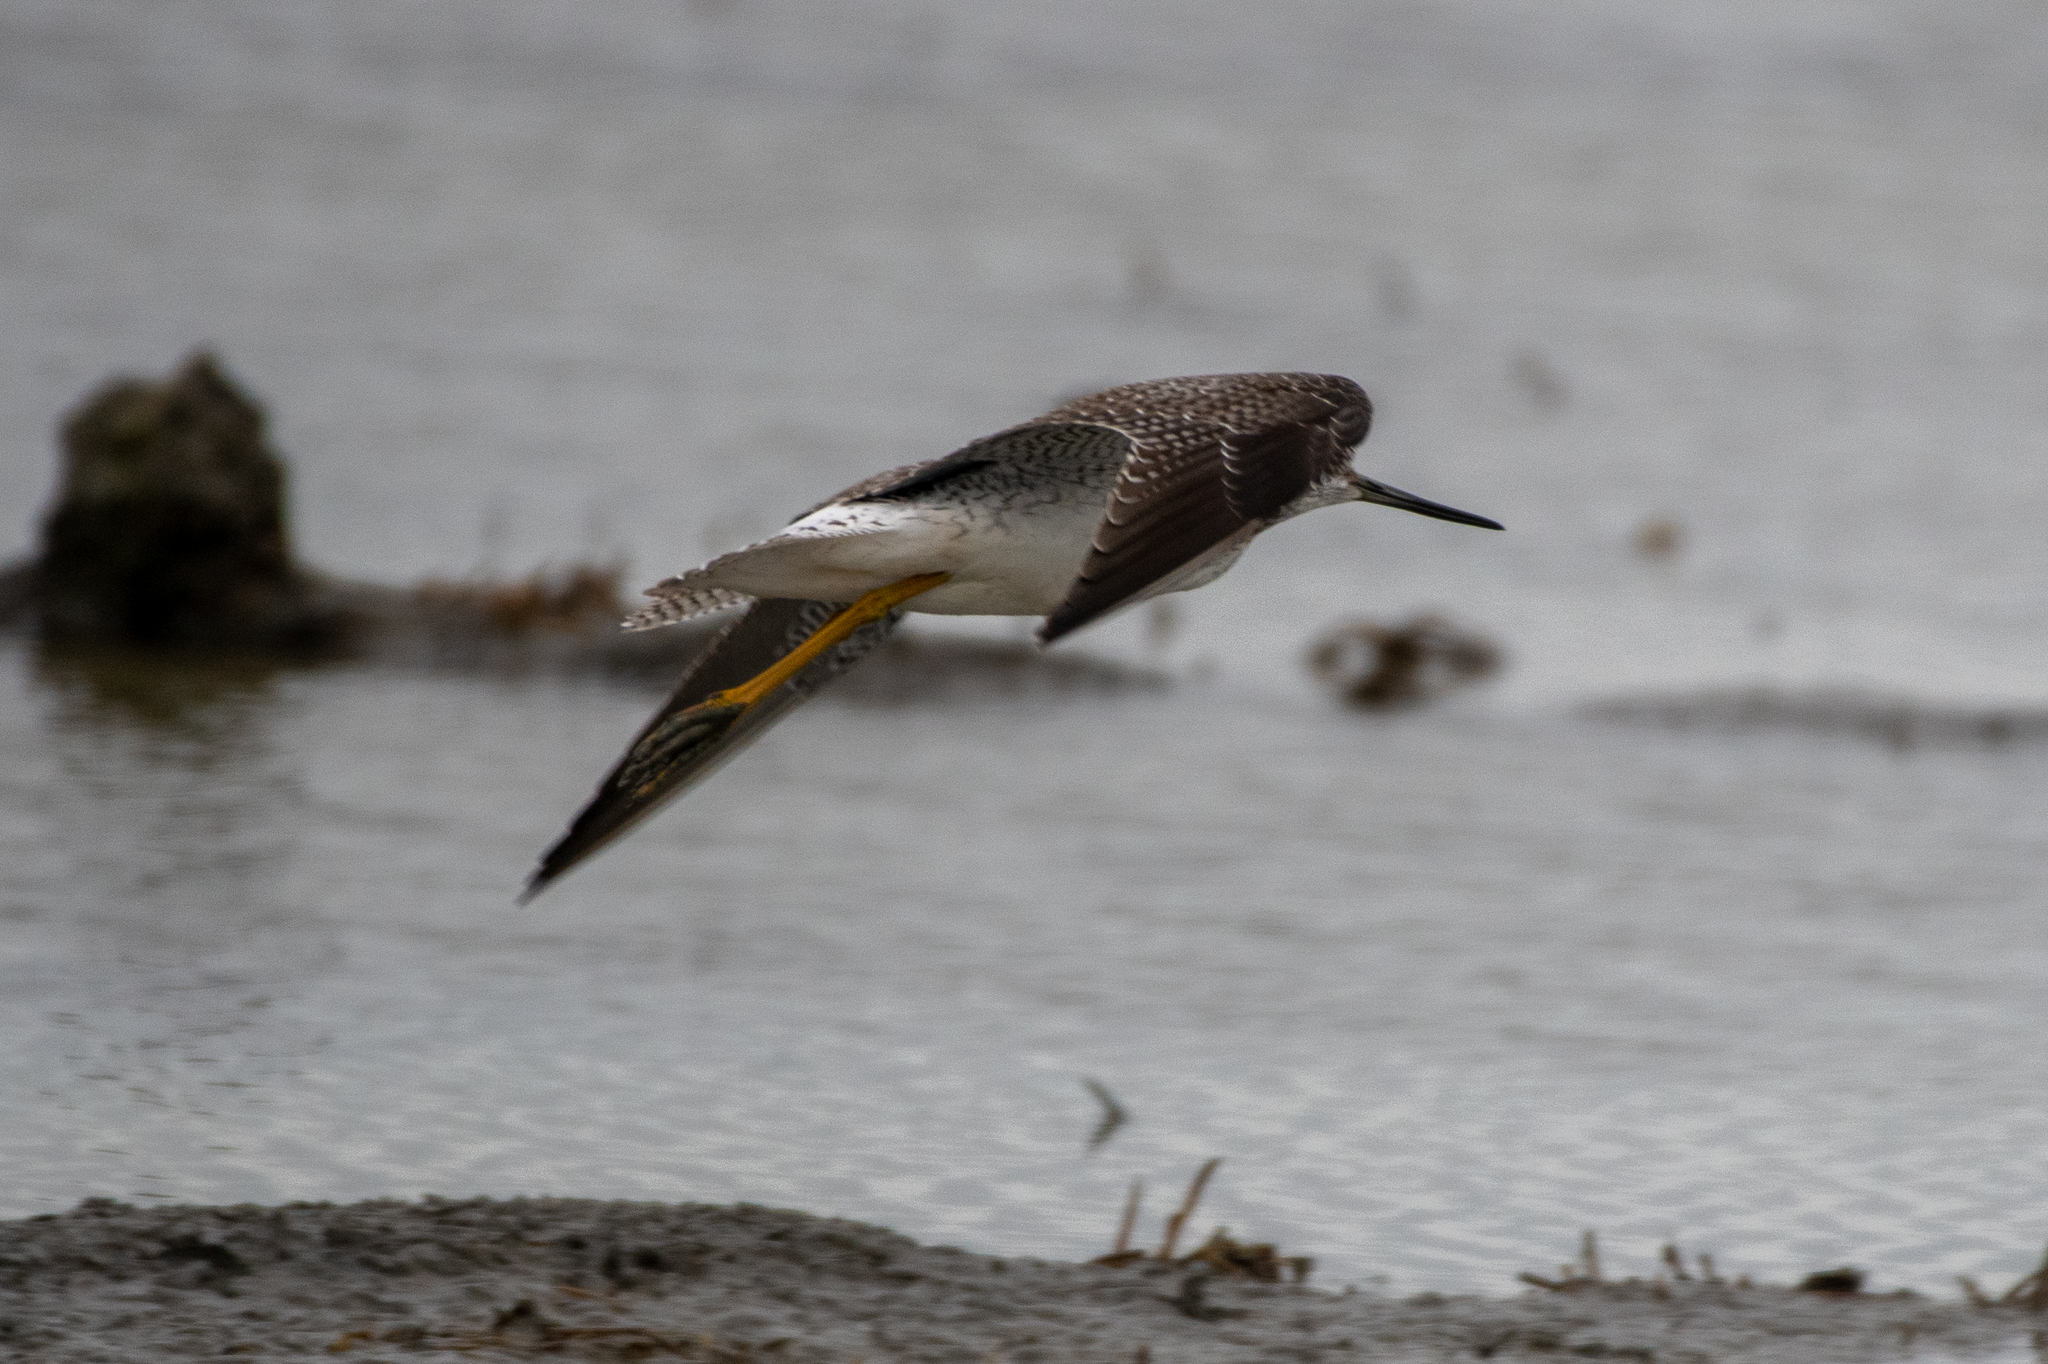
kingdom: Animalia
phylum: Chordata
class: Aves
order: Charadriiformes
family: Scolopacidae
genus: Tringa
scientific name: Tringa melanoleuca
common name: Greater yellowlegs
